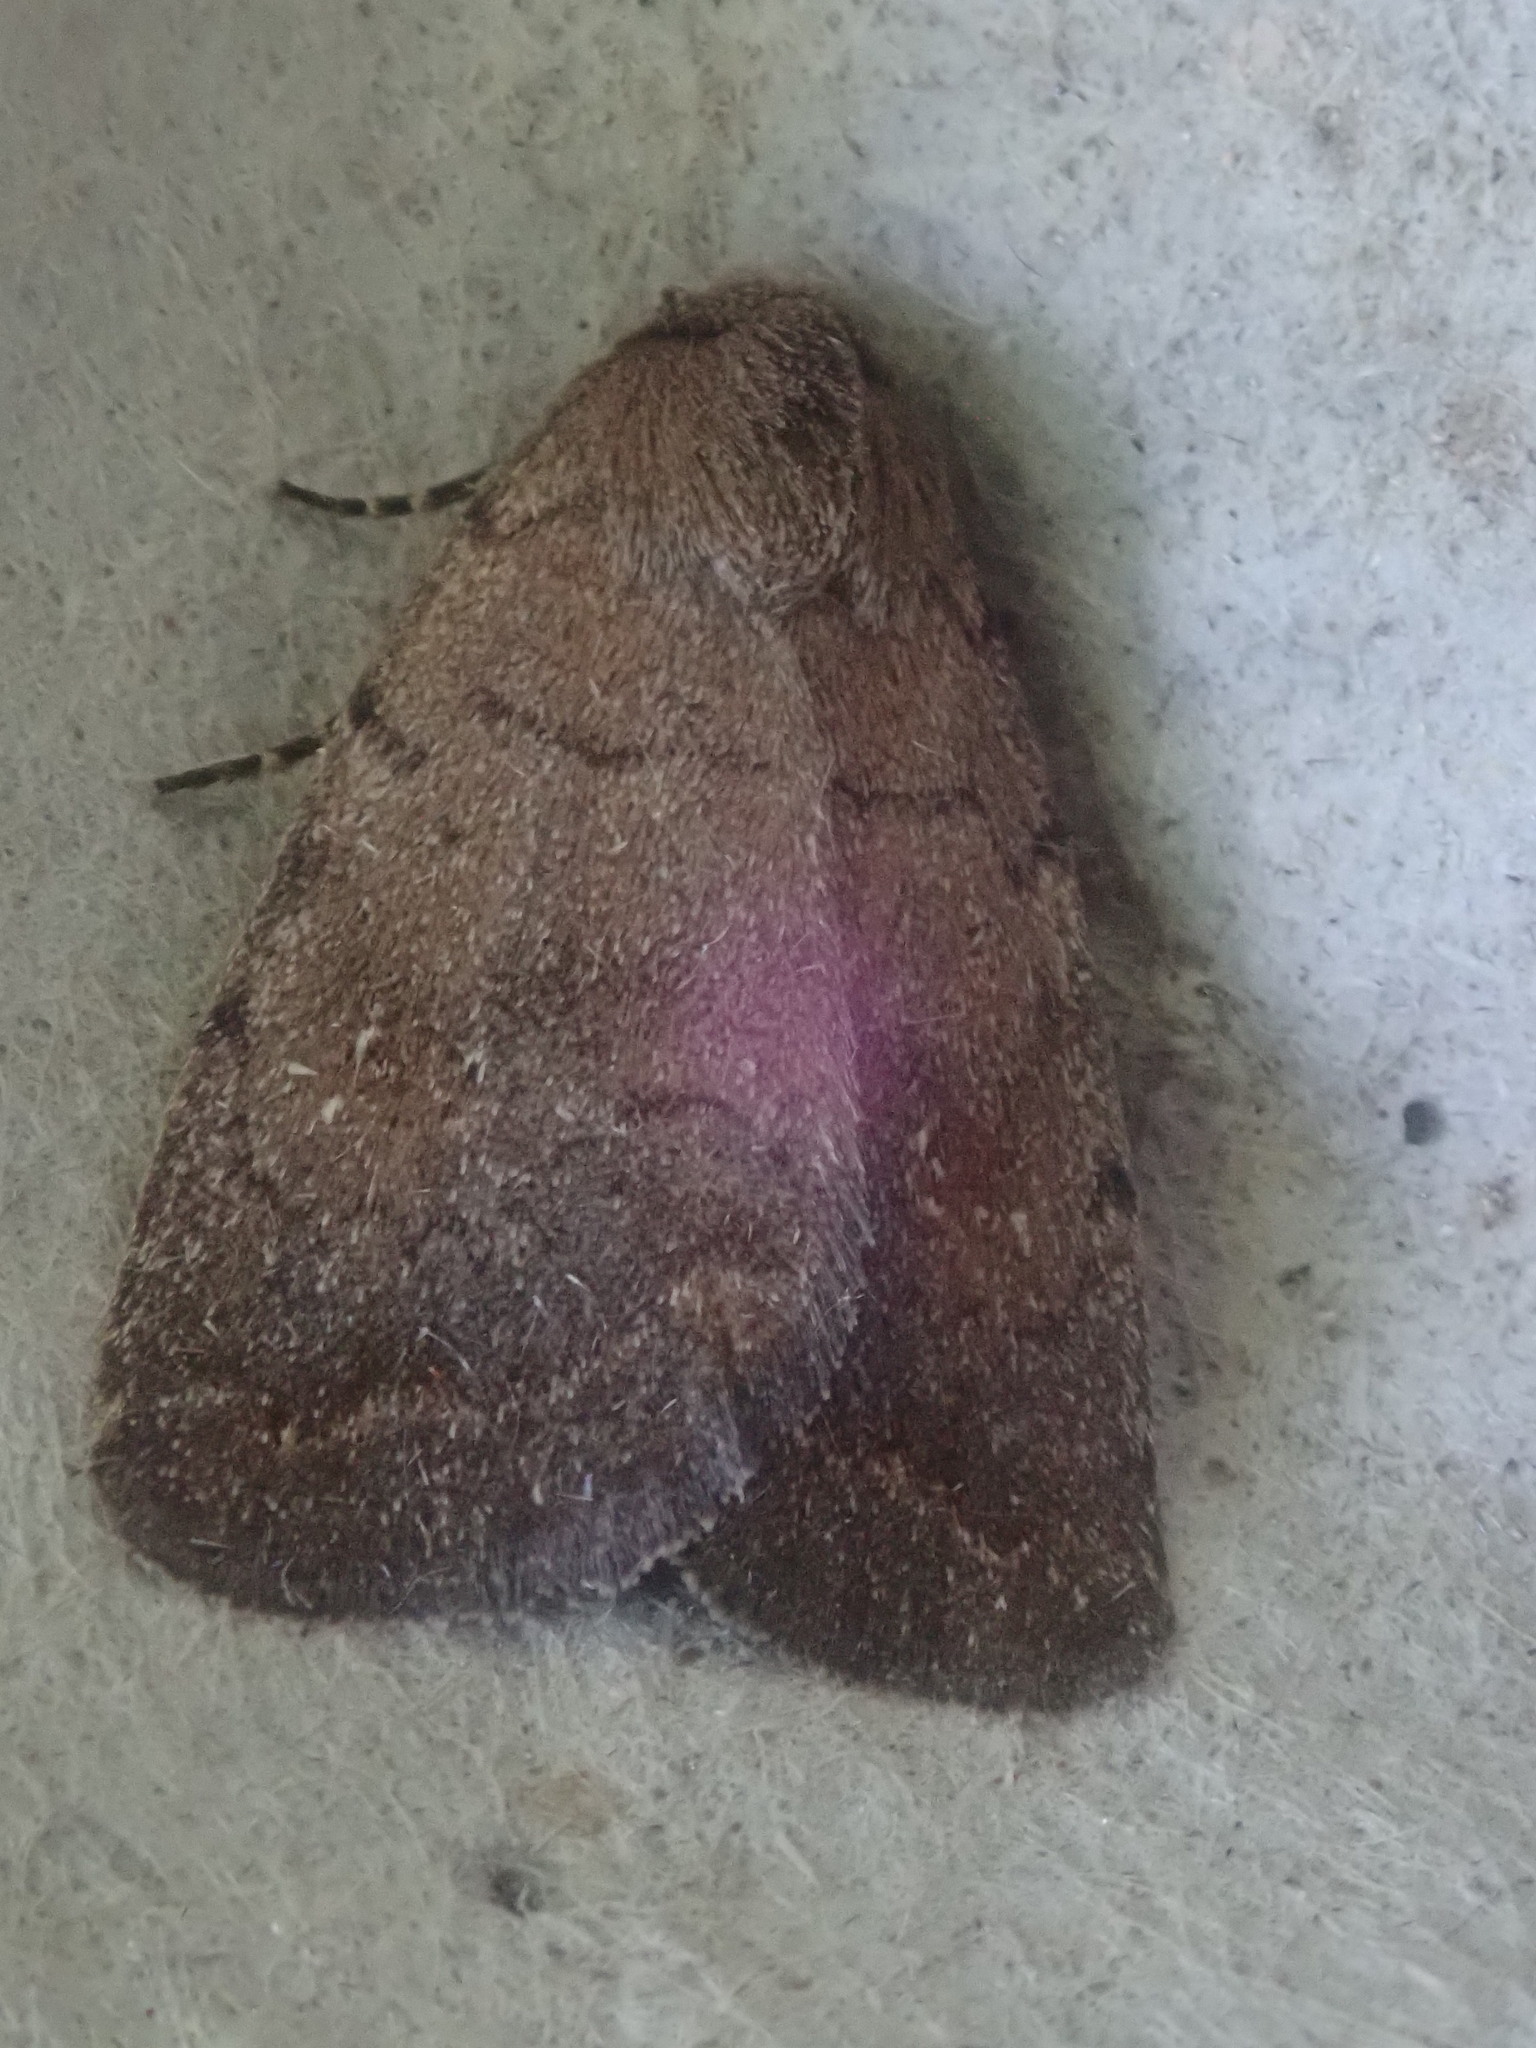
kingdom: Animalia
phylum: Arthropoda
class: Insecta
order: Lepidoptera
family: Noctuidae
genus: Athetis
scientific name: Athetis tarda
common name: Slowpoke moth
